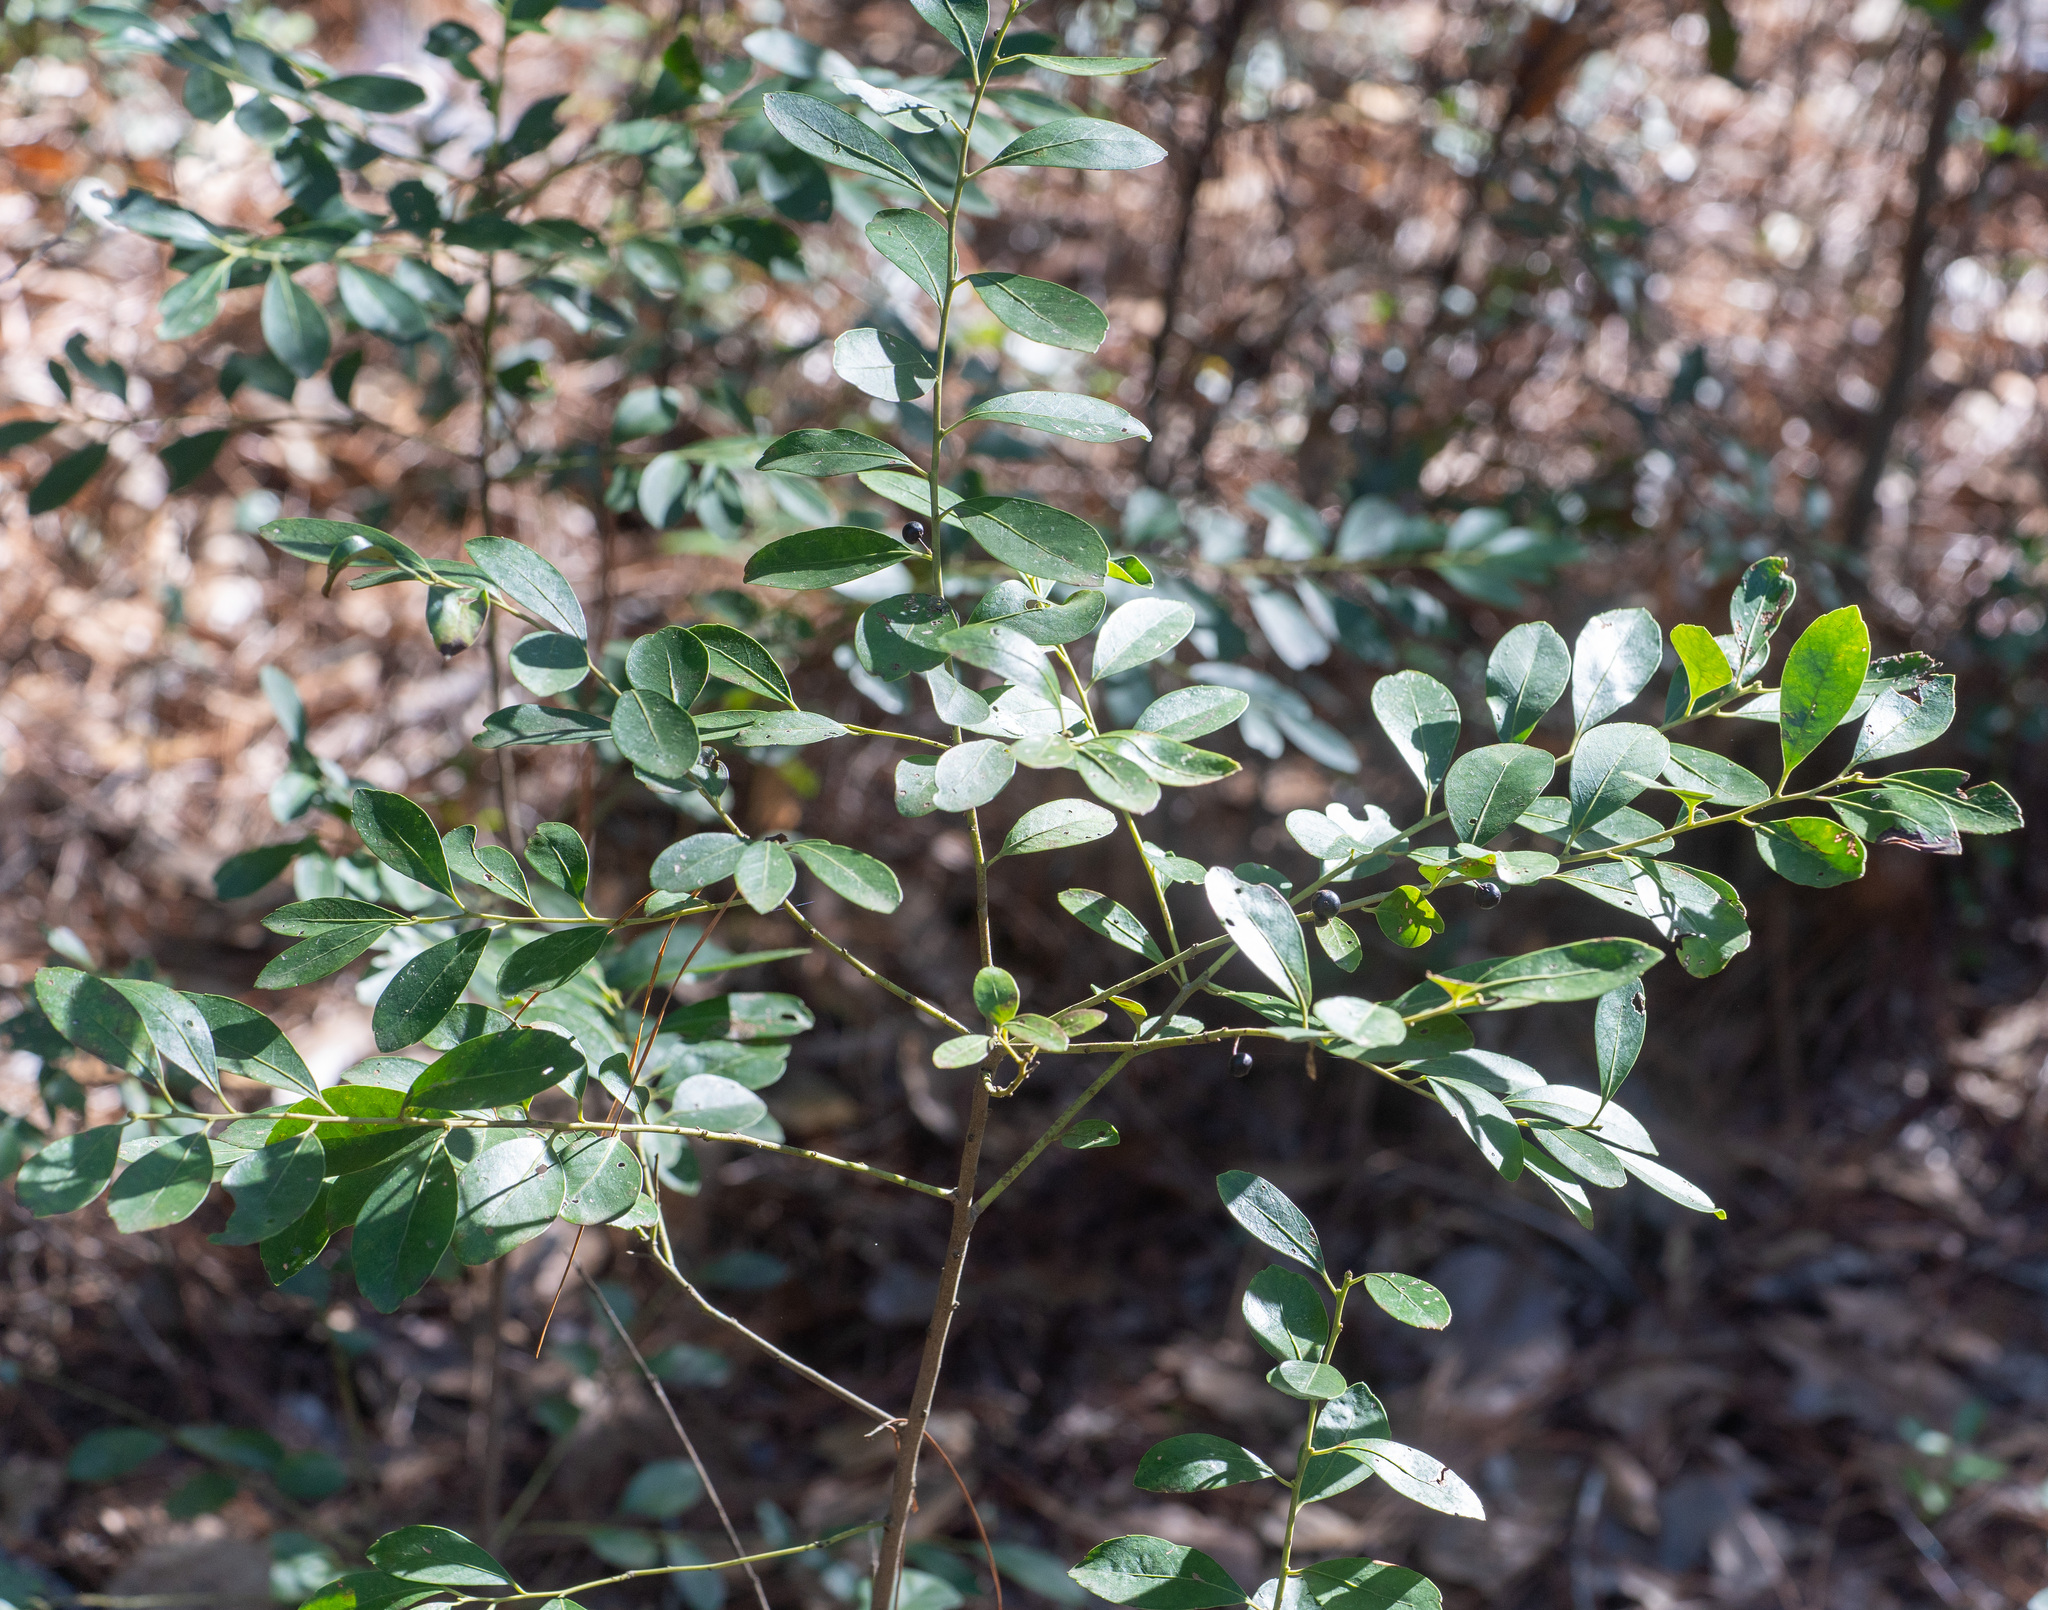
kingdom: Plantae
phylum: Tracheophyta
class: Magnoliopsida
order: Aquifoliales
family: Aquifoliaceae
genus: Ilex
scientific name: Ilex glabra
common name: Bitter gallberry
